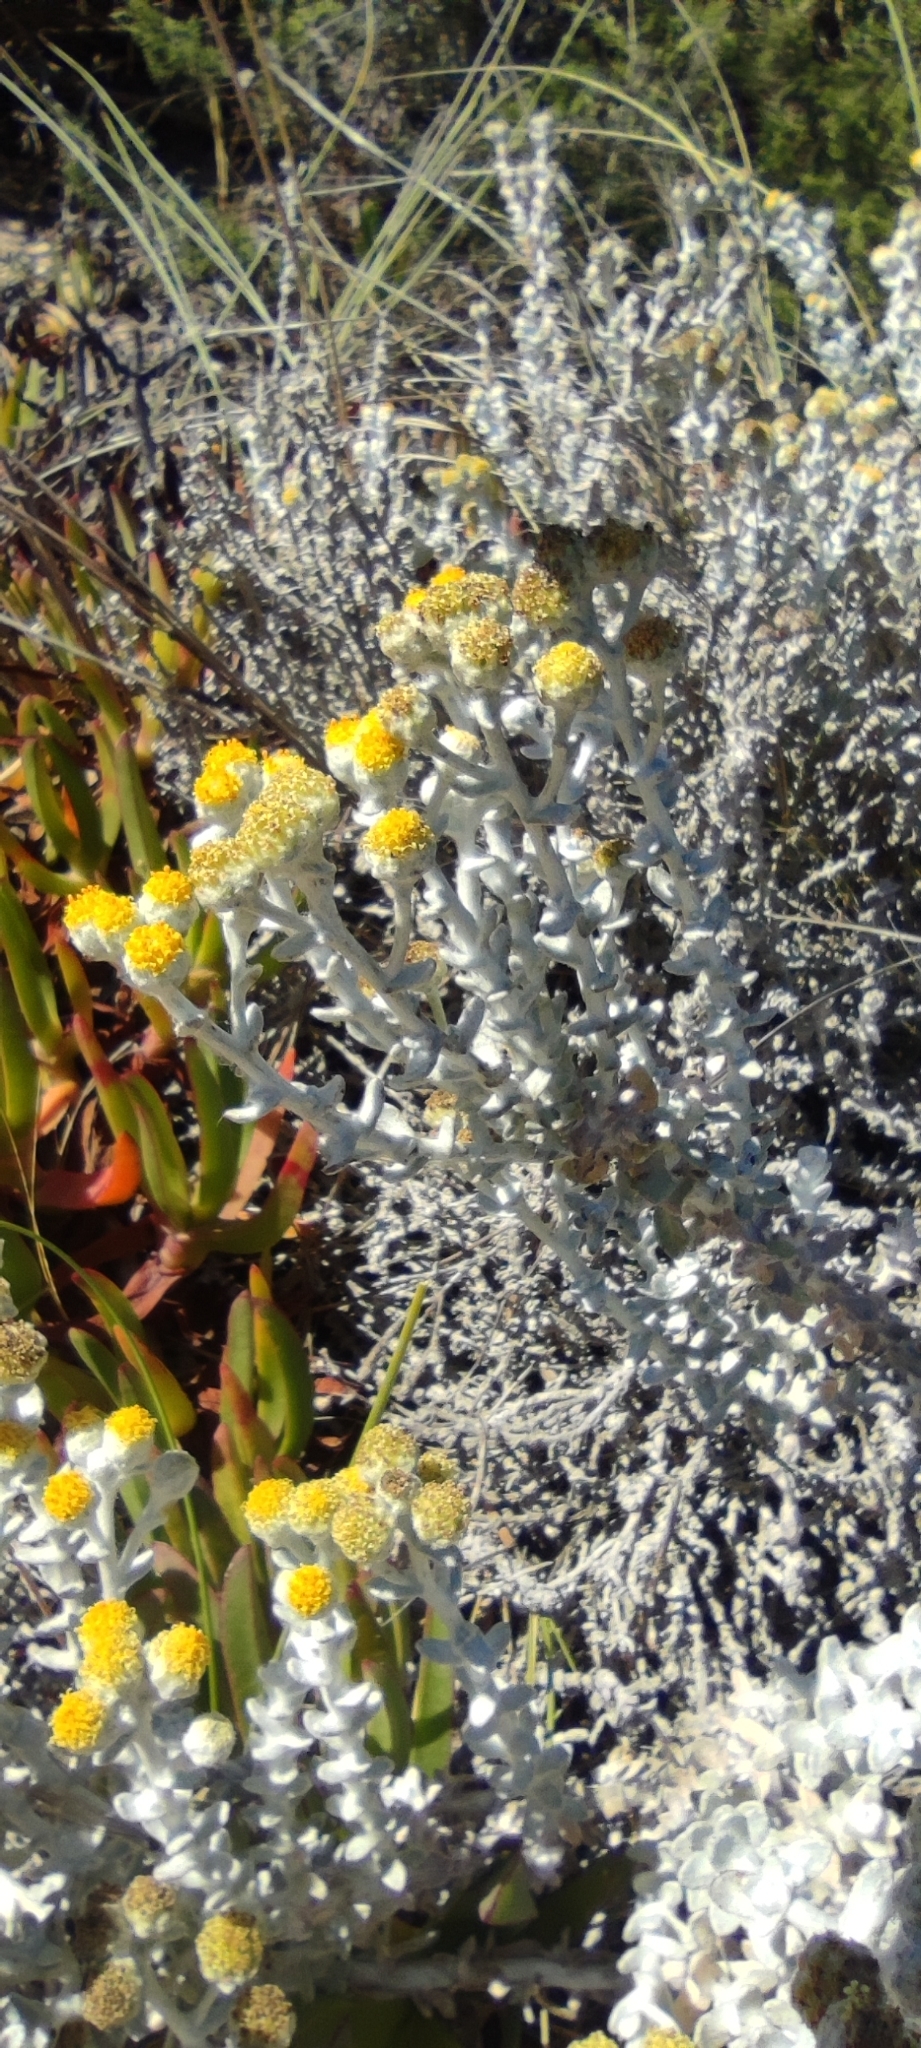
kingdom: Plantae
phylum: Tracheophyta
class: Magnoliopsida
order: Asterales
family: Asteraceae
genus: Achillea
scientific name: Achillea maritima
